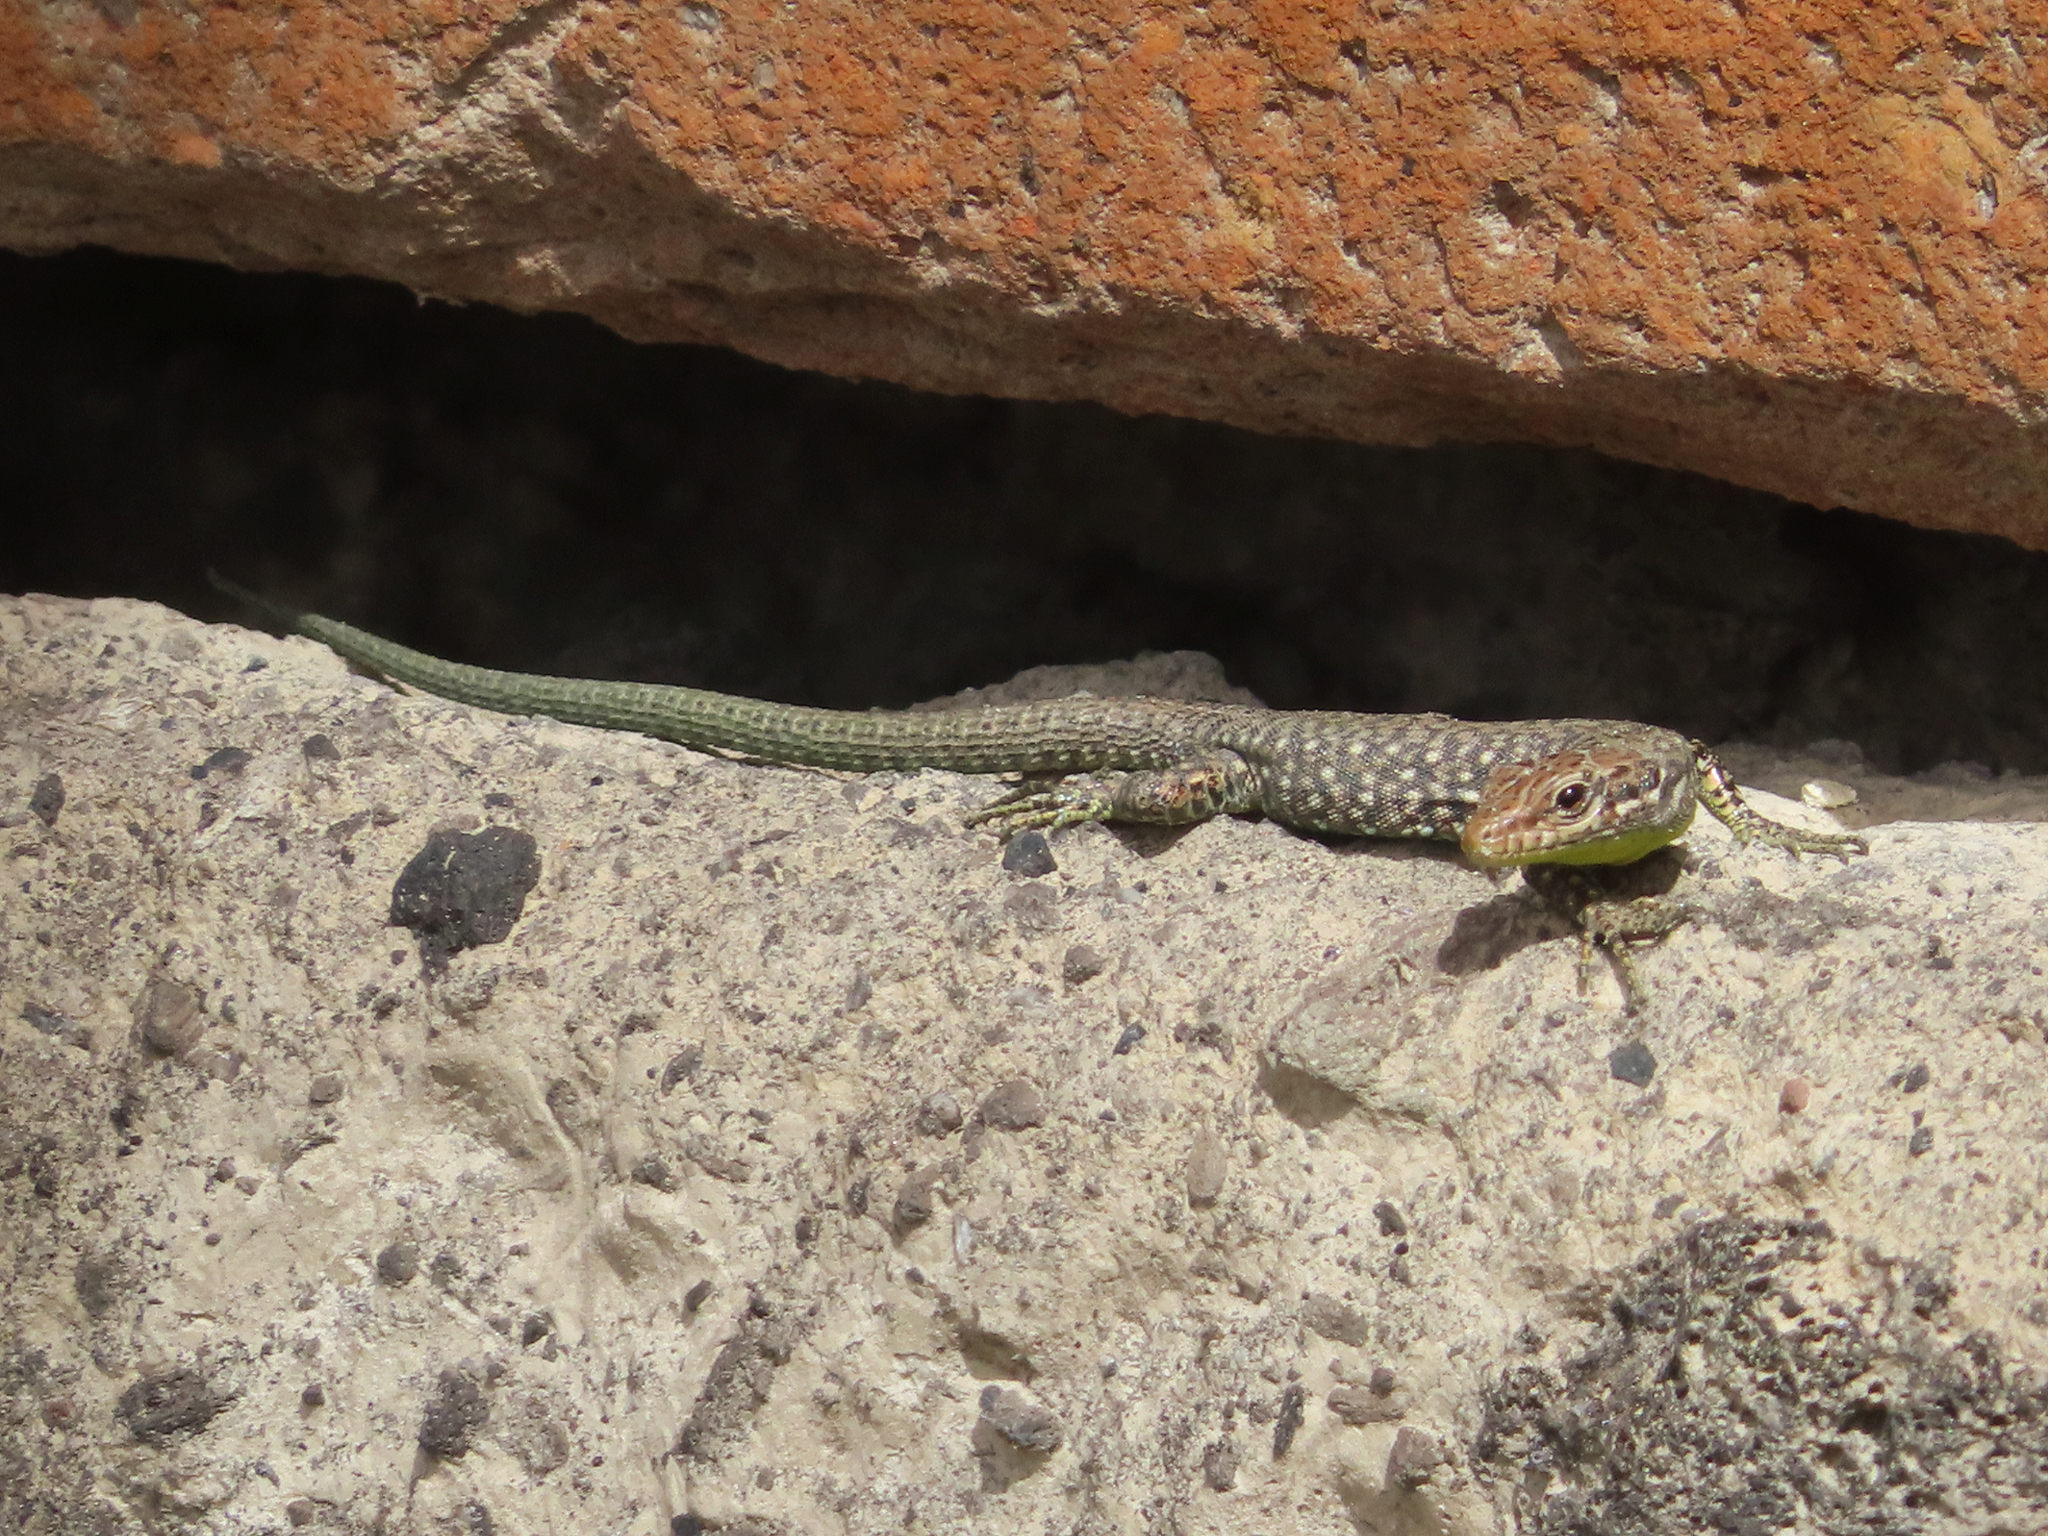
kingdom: Animalia
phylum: Chordata
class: Squamata
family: Lacertidae
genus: Darevskia
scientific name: Darevskia
